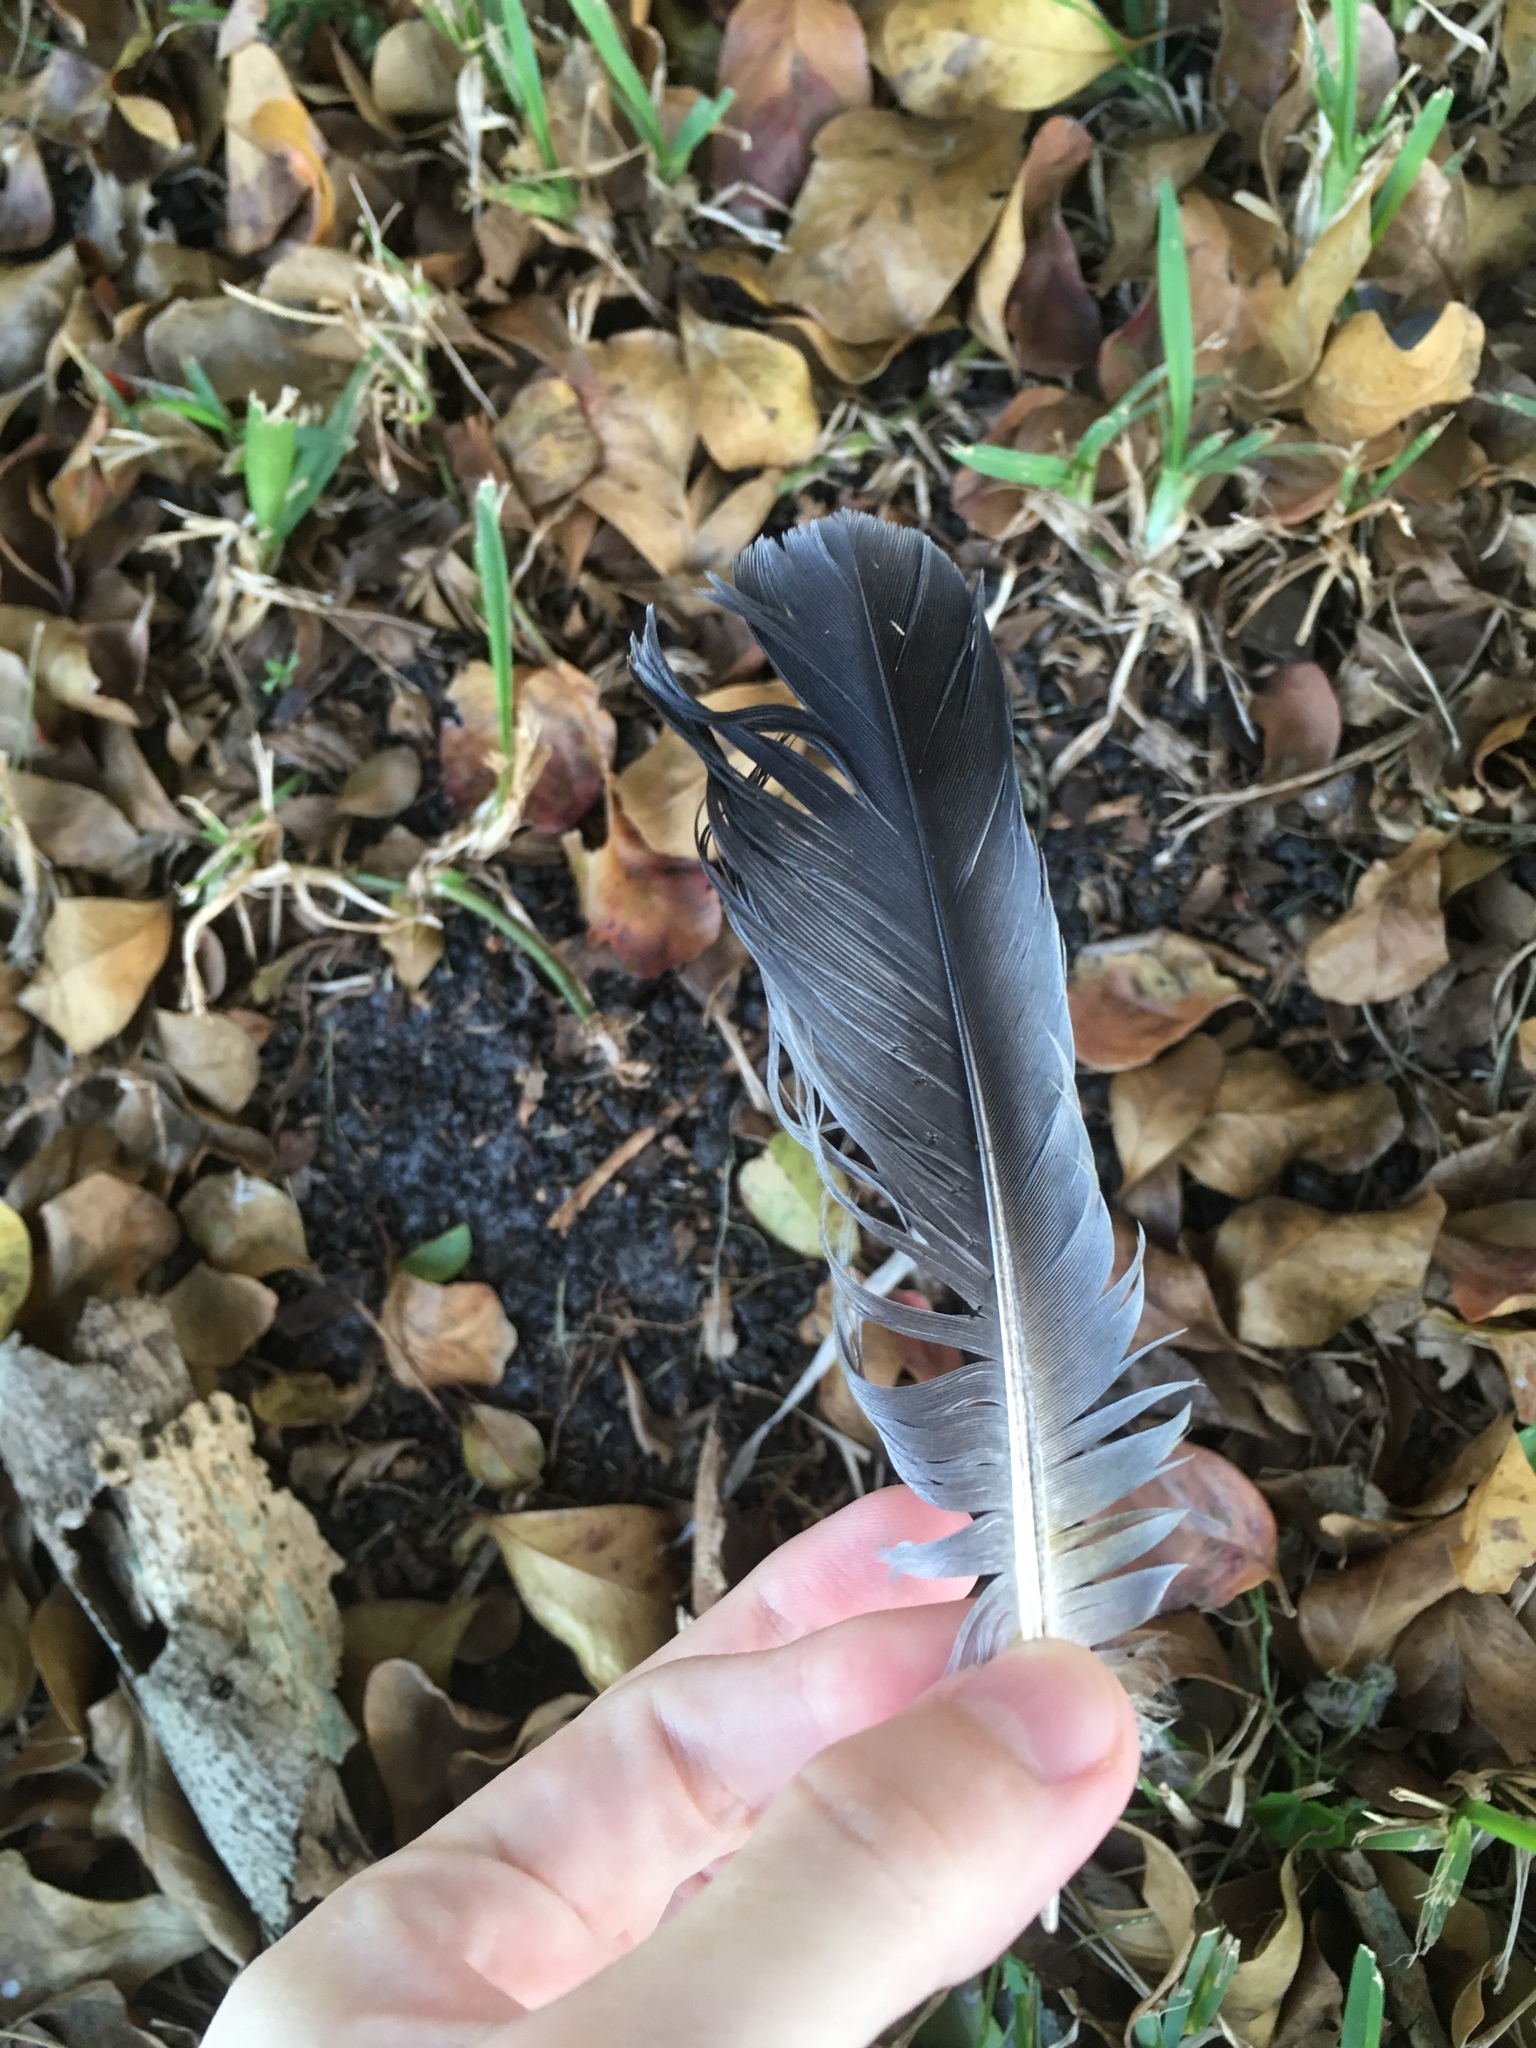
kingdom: Animalia
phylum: Chordata
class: Aves
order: Columbiformes
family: Columbidae
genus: Columba
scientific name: Columba livia
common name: Rock pigeon
